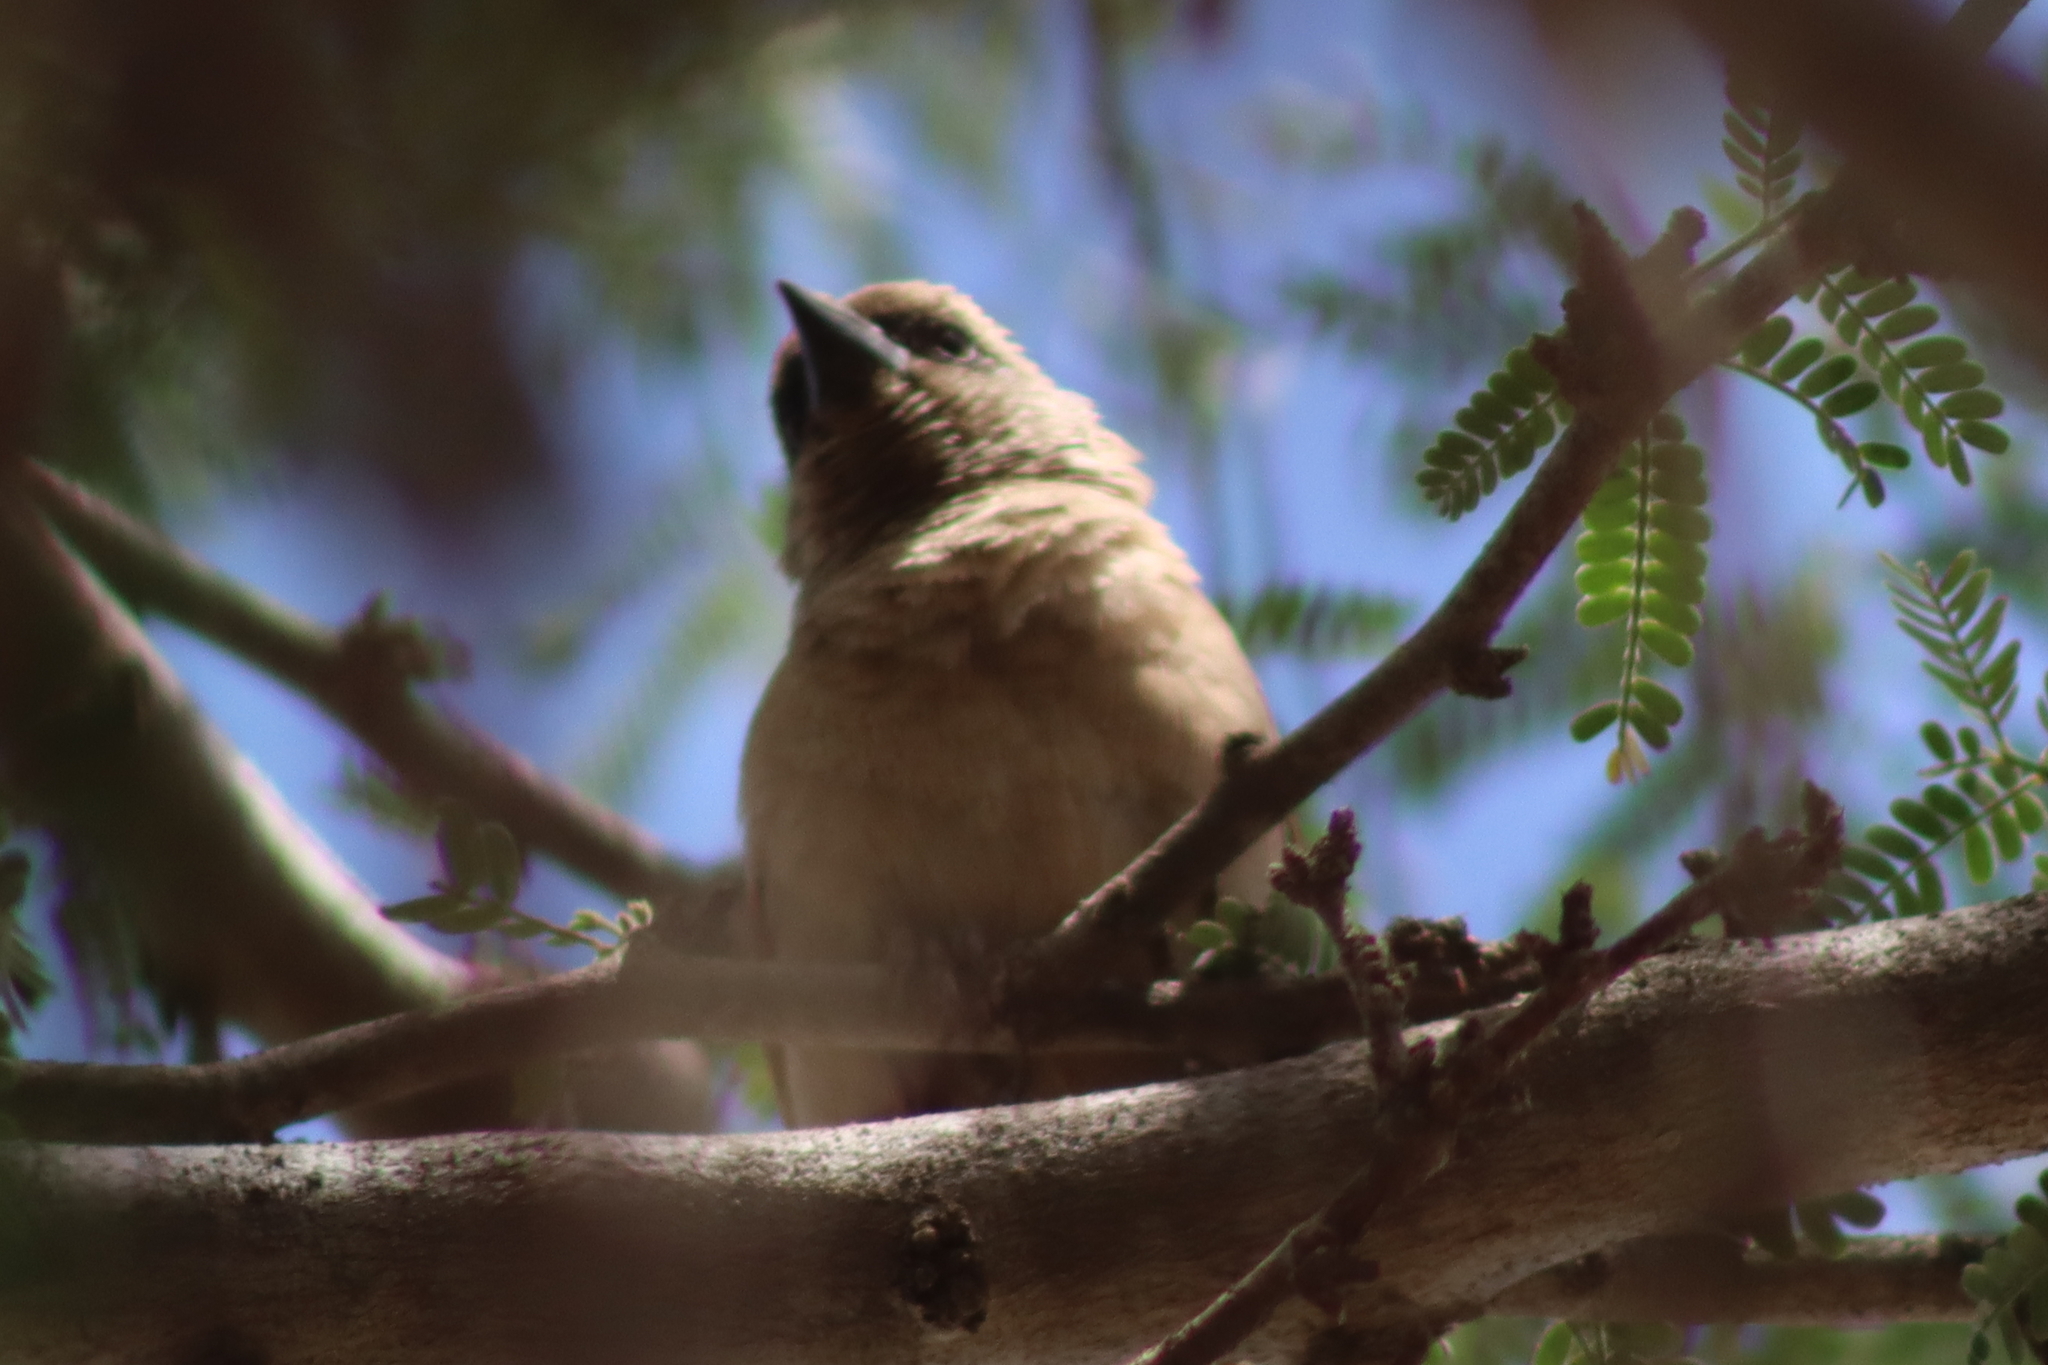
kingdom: Animalia
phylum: Chordata
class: Aves
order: Passeriformes
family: Icteridae
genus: Agelaioides
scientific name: Agelaioides badius
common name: Baywing
